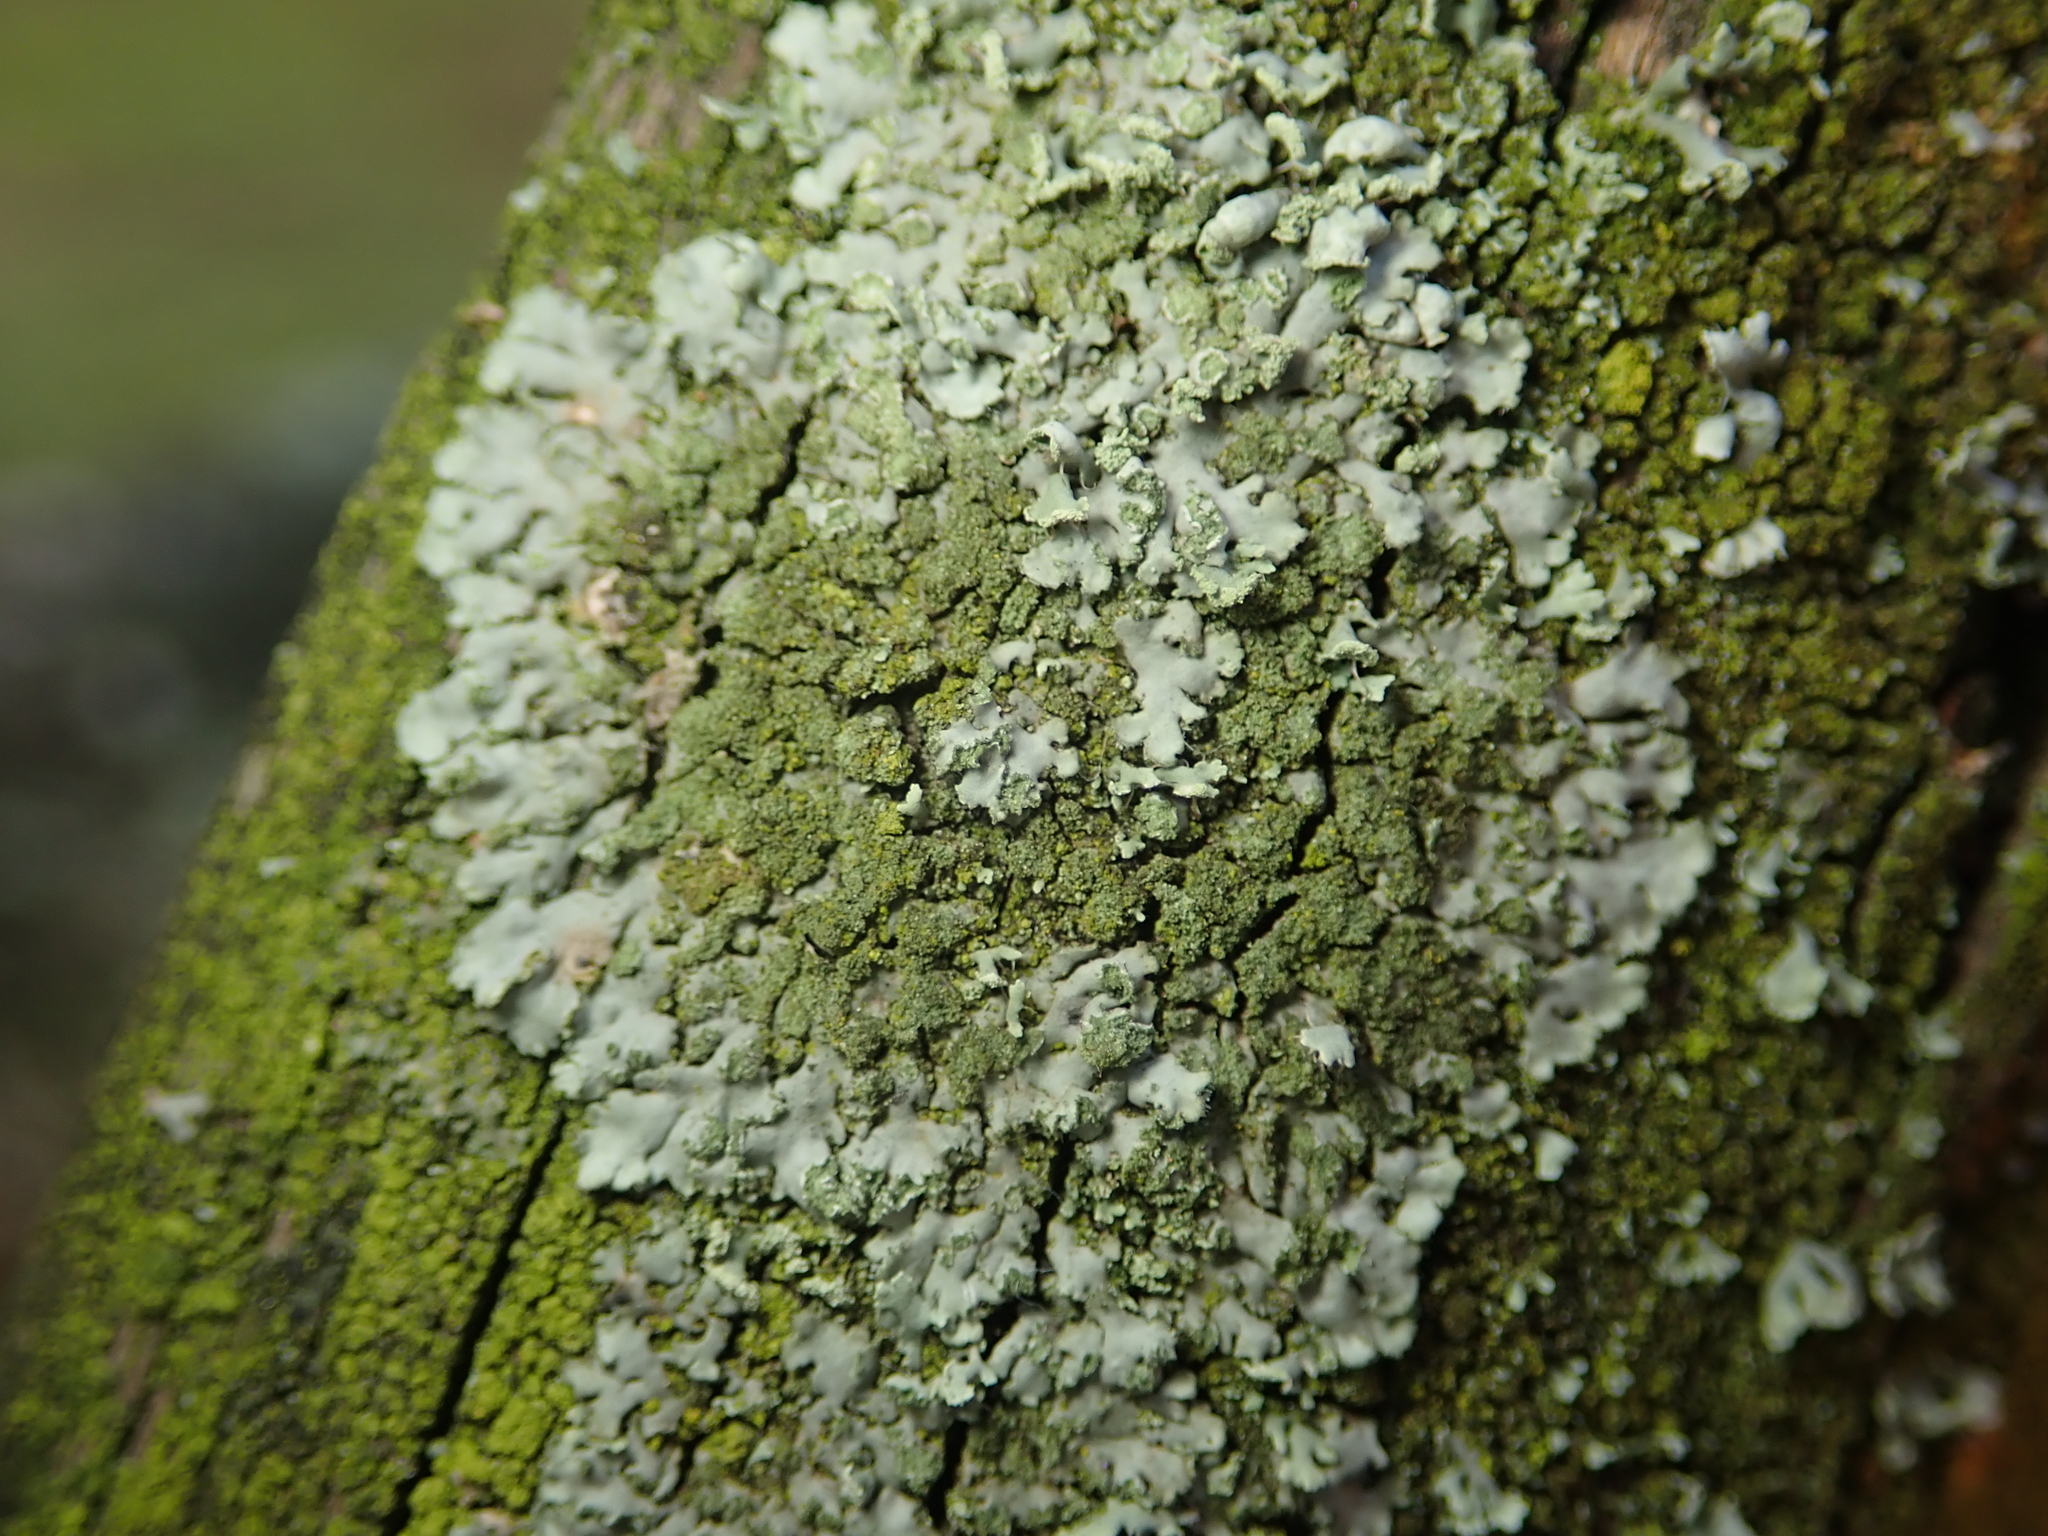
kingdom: Fungi
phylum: Ascomycota
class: Lecanoromycetes
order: Caliciales
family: Physciaceae
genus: Phaeophyscia
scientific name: Phaeophyscia orbicularis
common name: Mealy shadow lichen
